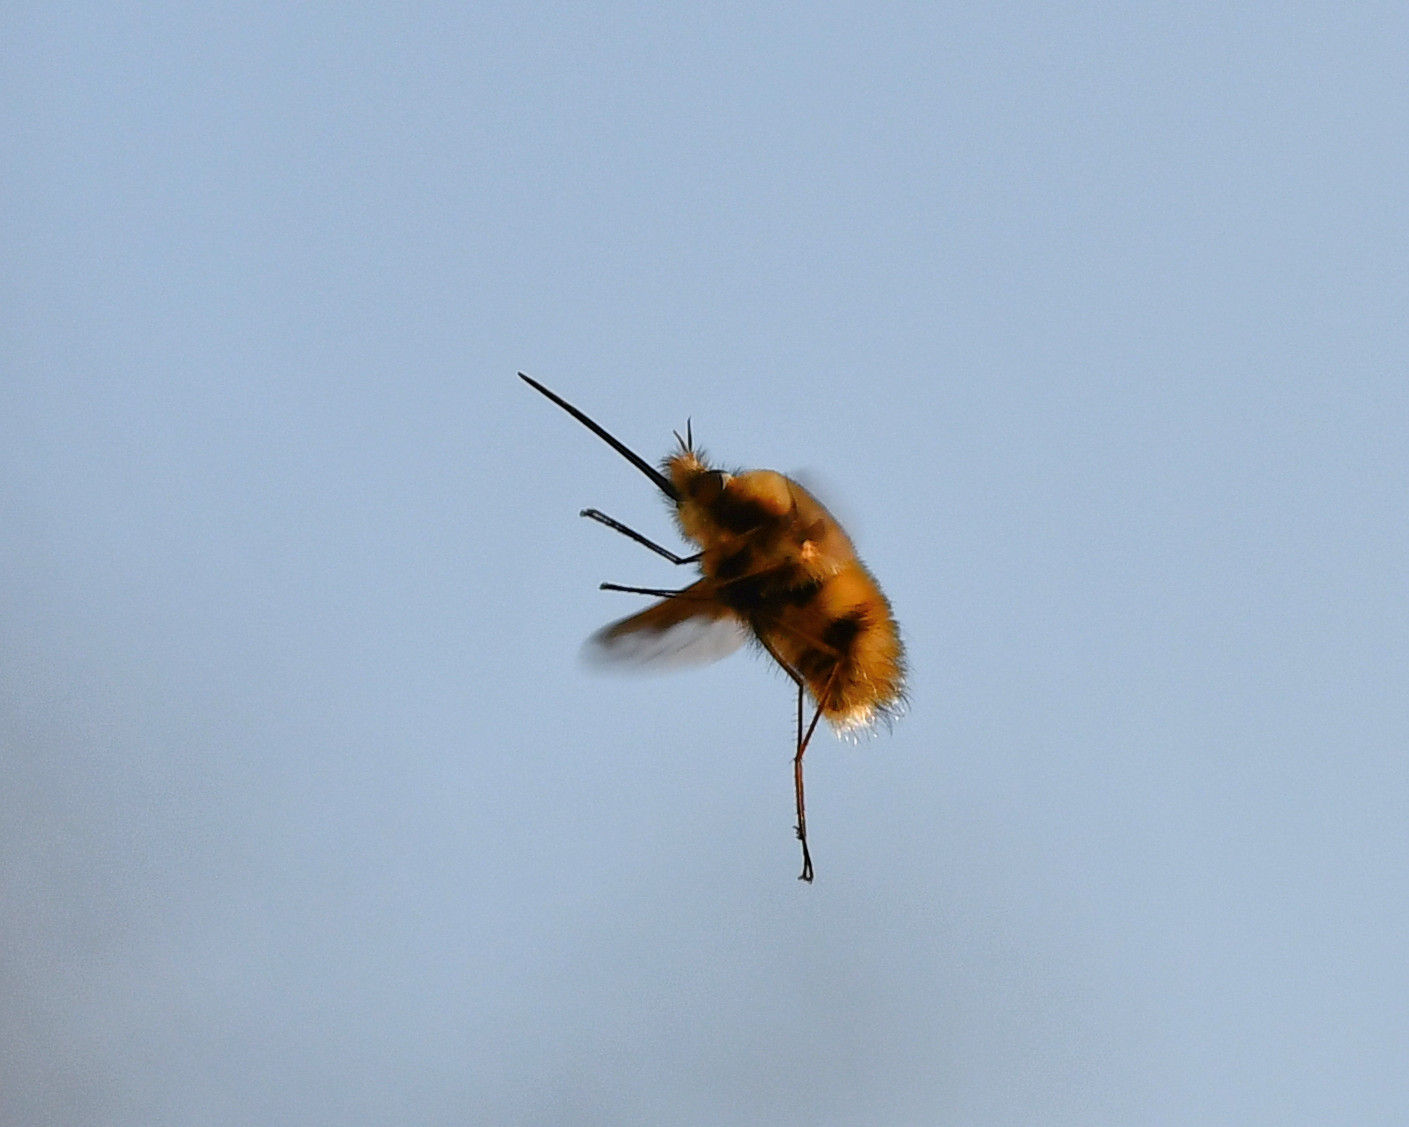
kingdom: Animalia
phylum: Arthropoda
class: Insecta
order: Diptera
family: Bombyliidae
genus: Bombylius
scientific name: Bombylius major
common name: Bee fly
